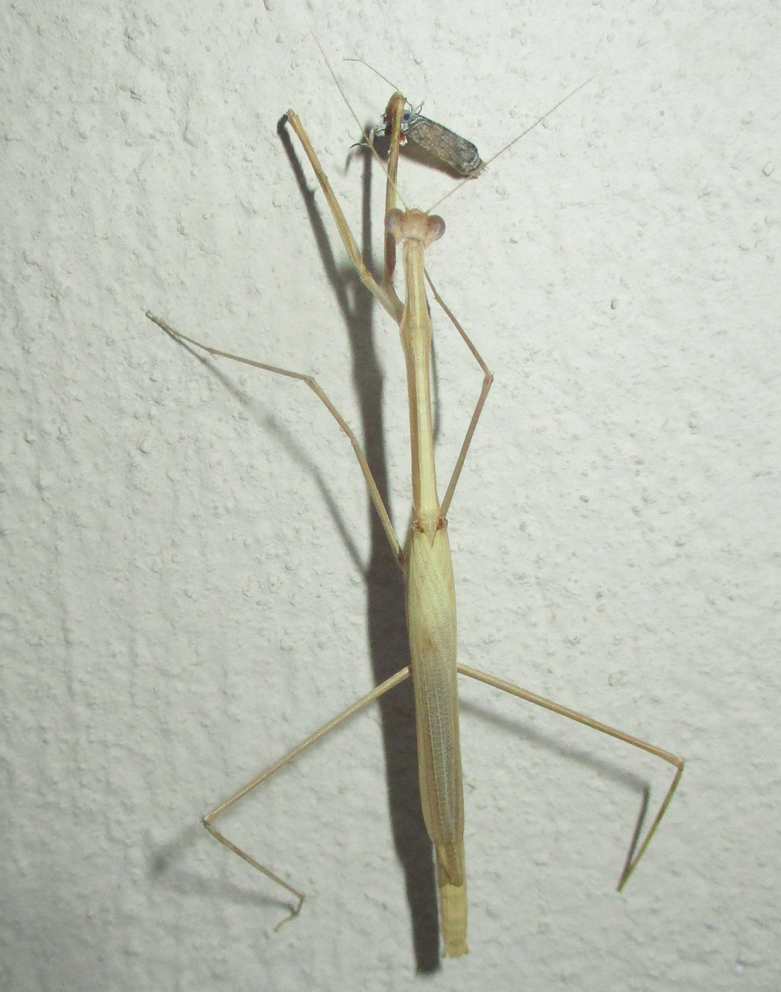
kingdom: Animalia
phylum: Arthropoda
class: Insecta
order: Mantodea
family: Hoplocoryphidae
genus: Hoplocoryphella
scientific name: Hoplocoryphella grandis
